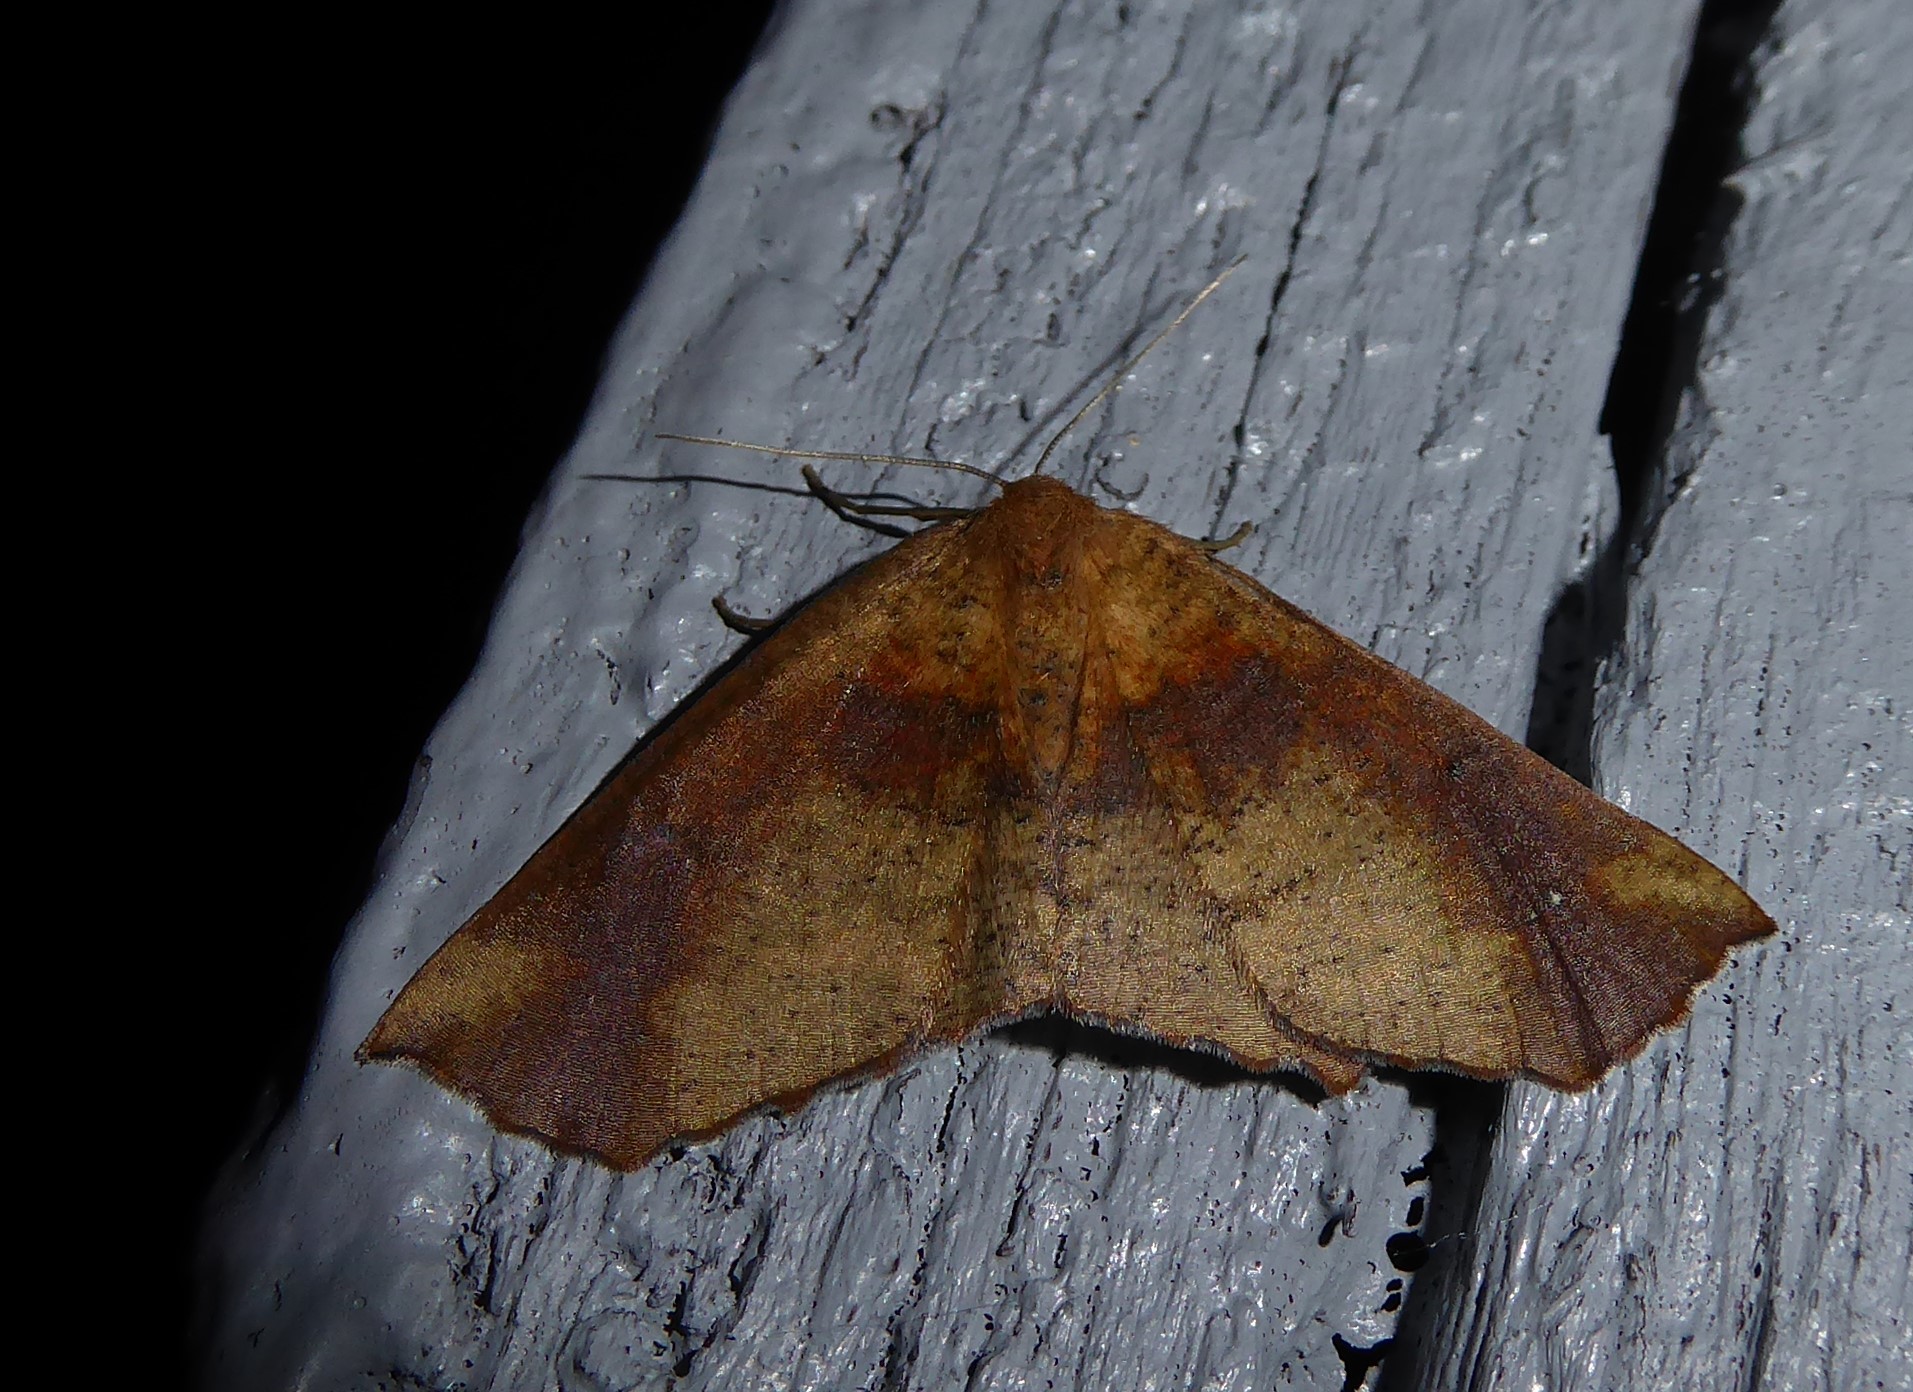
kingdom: Animalia
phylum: Arthropoda
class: Insecta
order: Lepidoptera
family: Geometridae
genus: Xyridacma
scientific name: Xyridacma ustaria
